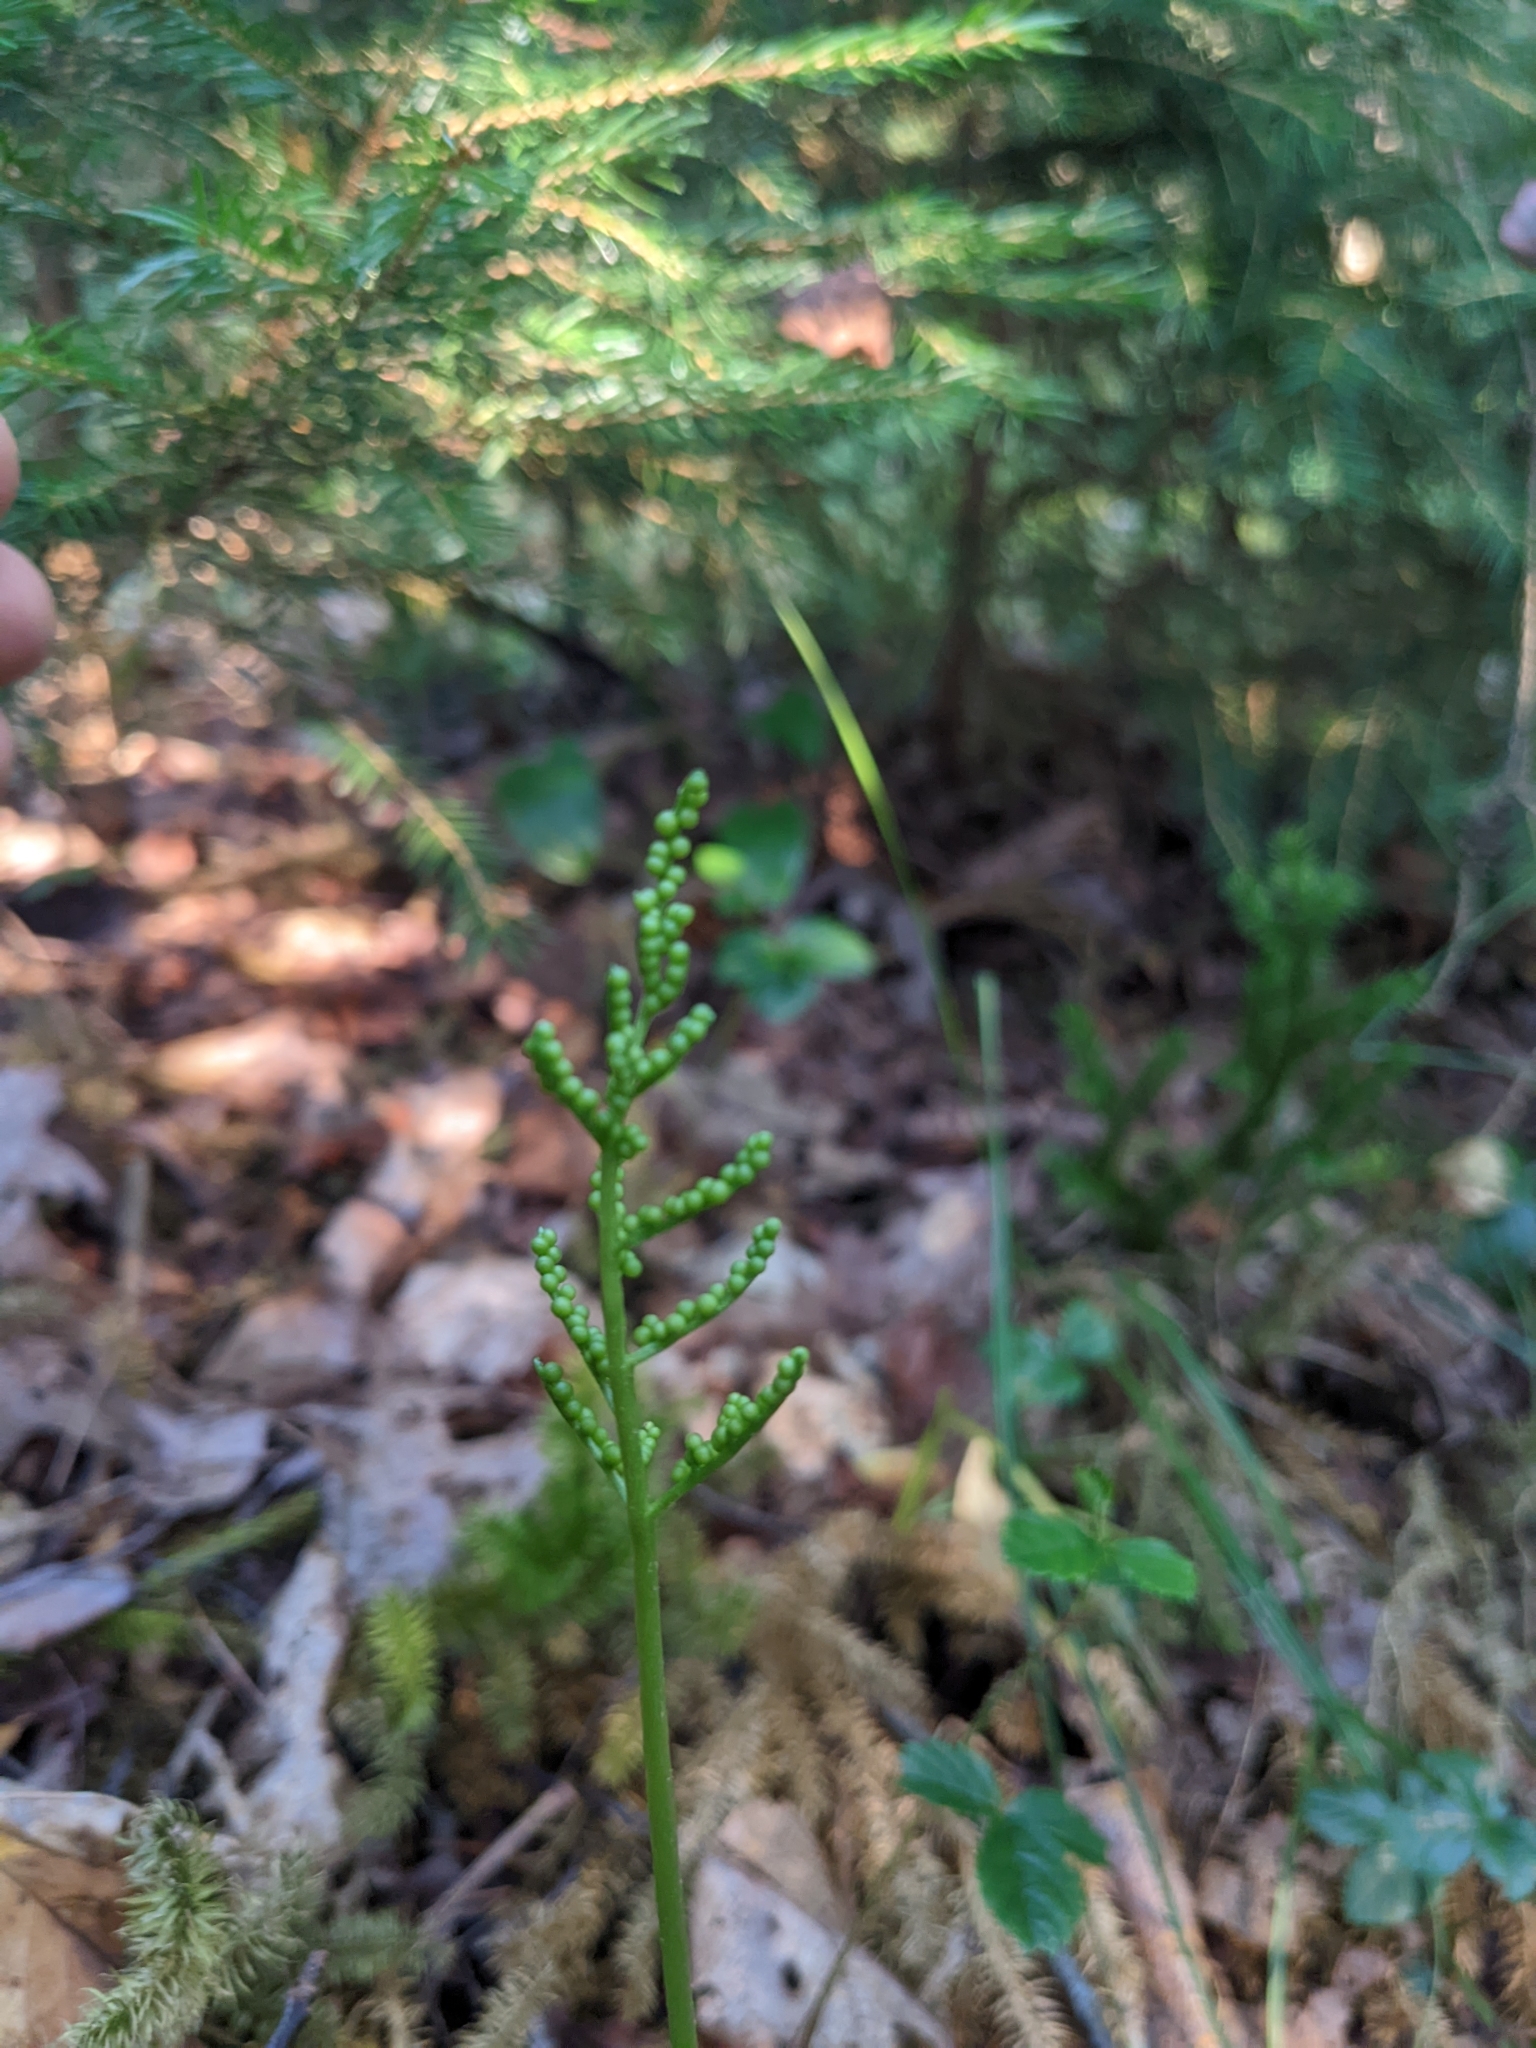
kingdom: Plantae
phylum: Tracheophyta
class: Polypodiopsida
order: Ophioglossales
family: Ophioglossaceae
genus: Sceptridium
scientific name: Sceptridium dissectum
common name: Cut-leaved grapefern
